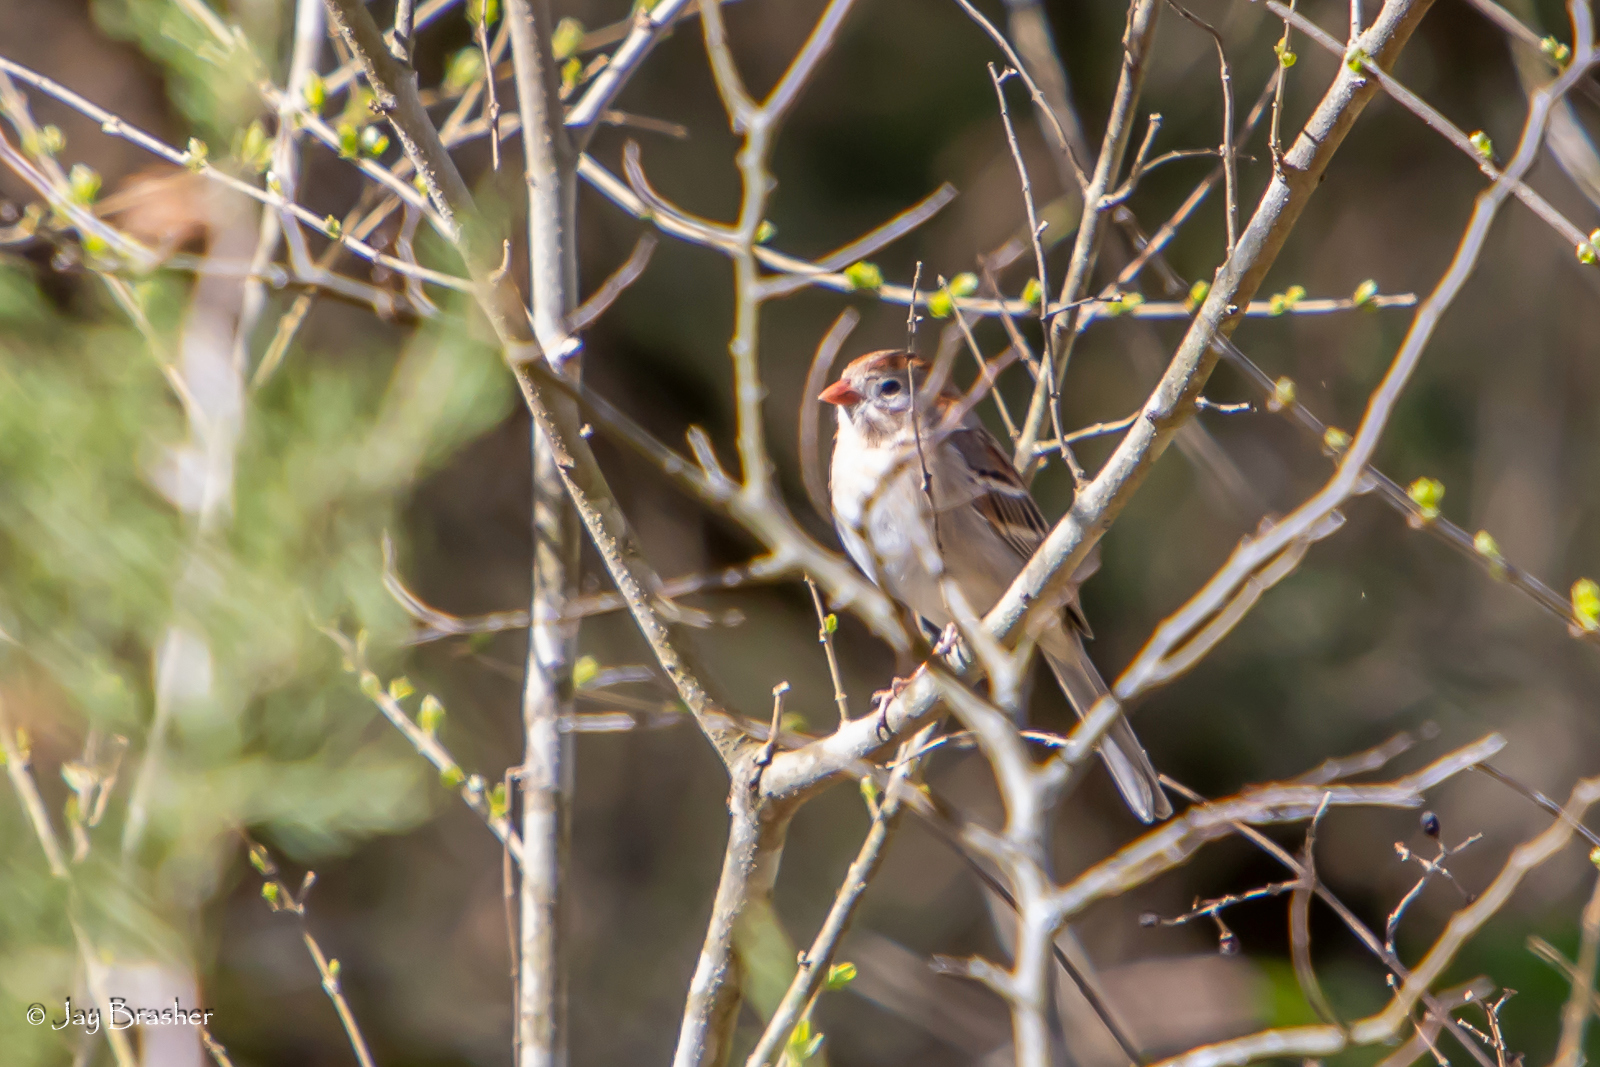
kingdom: Animalia
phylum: Chordata
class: Aves
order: Passeriformes
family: Passerellidae
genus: Spizella
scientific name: Spizella pusilla
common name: Field sparrow
